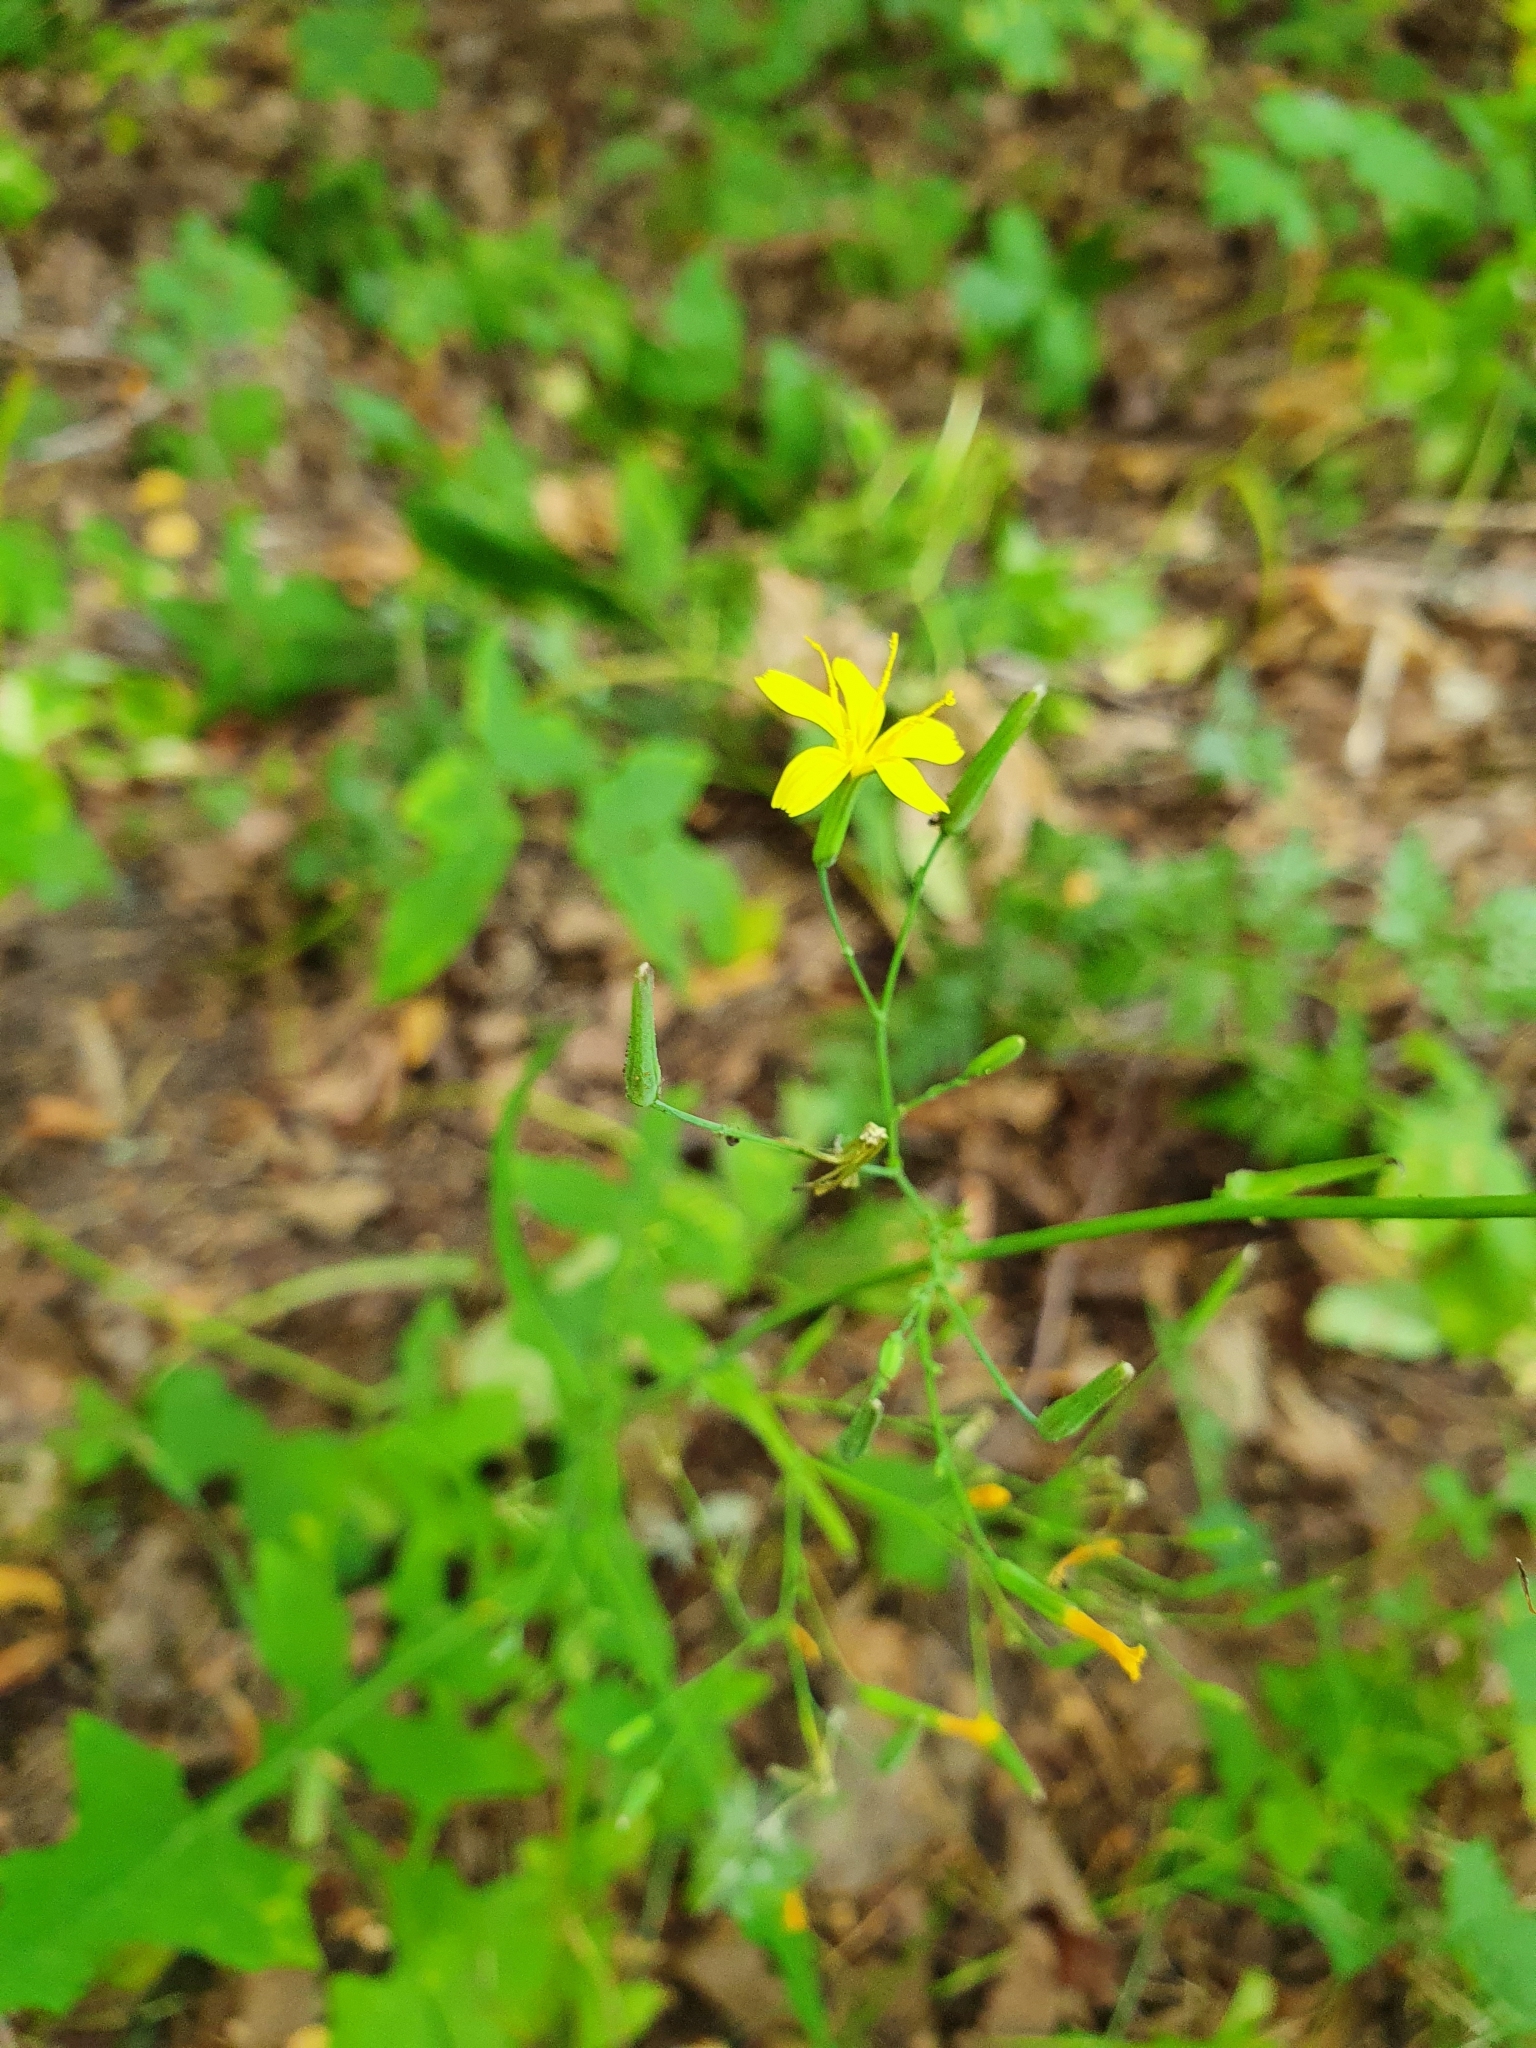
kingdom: Plantae
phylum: Tracheophyta
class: Magnoliopsida
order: Asterales
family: Asteraceae
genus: Mycelis
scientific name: Mycelis muralis
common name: Wall lettuce
